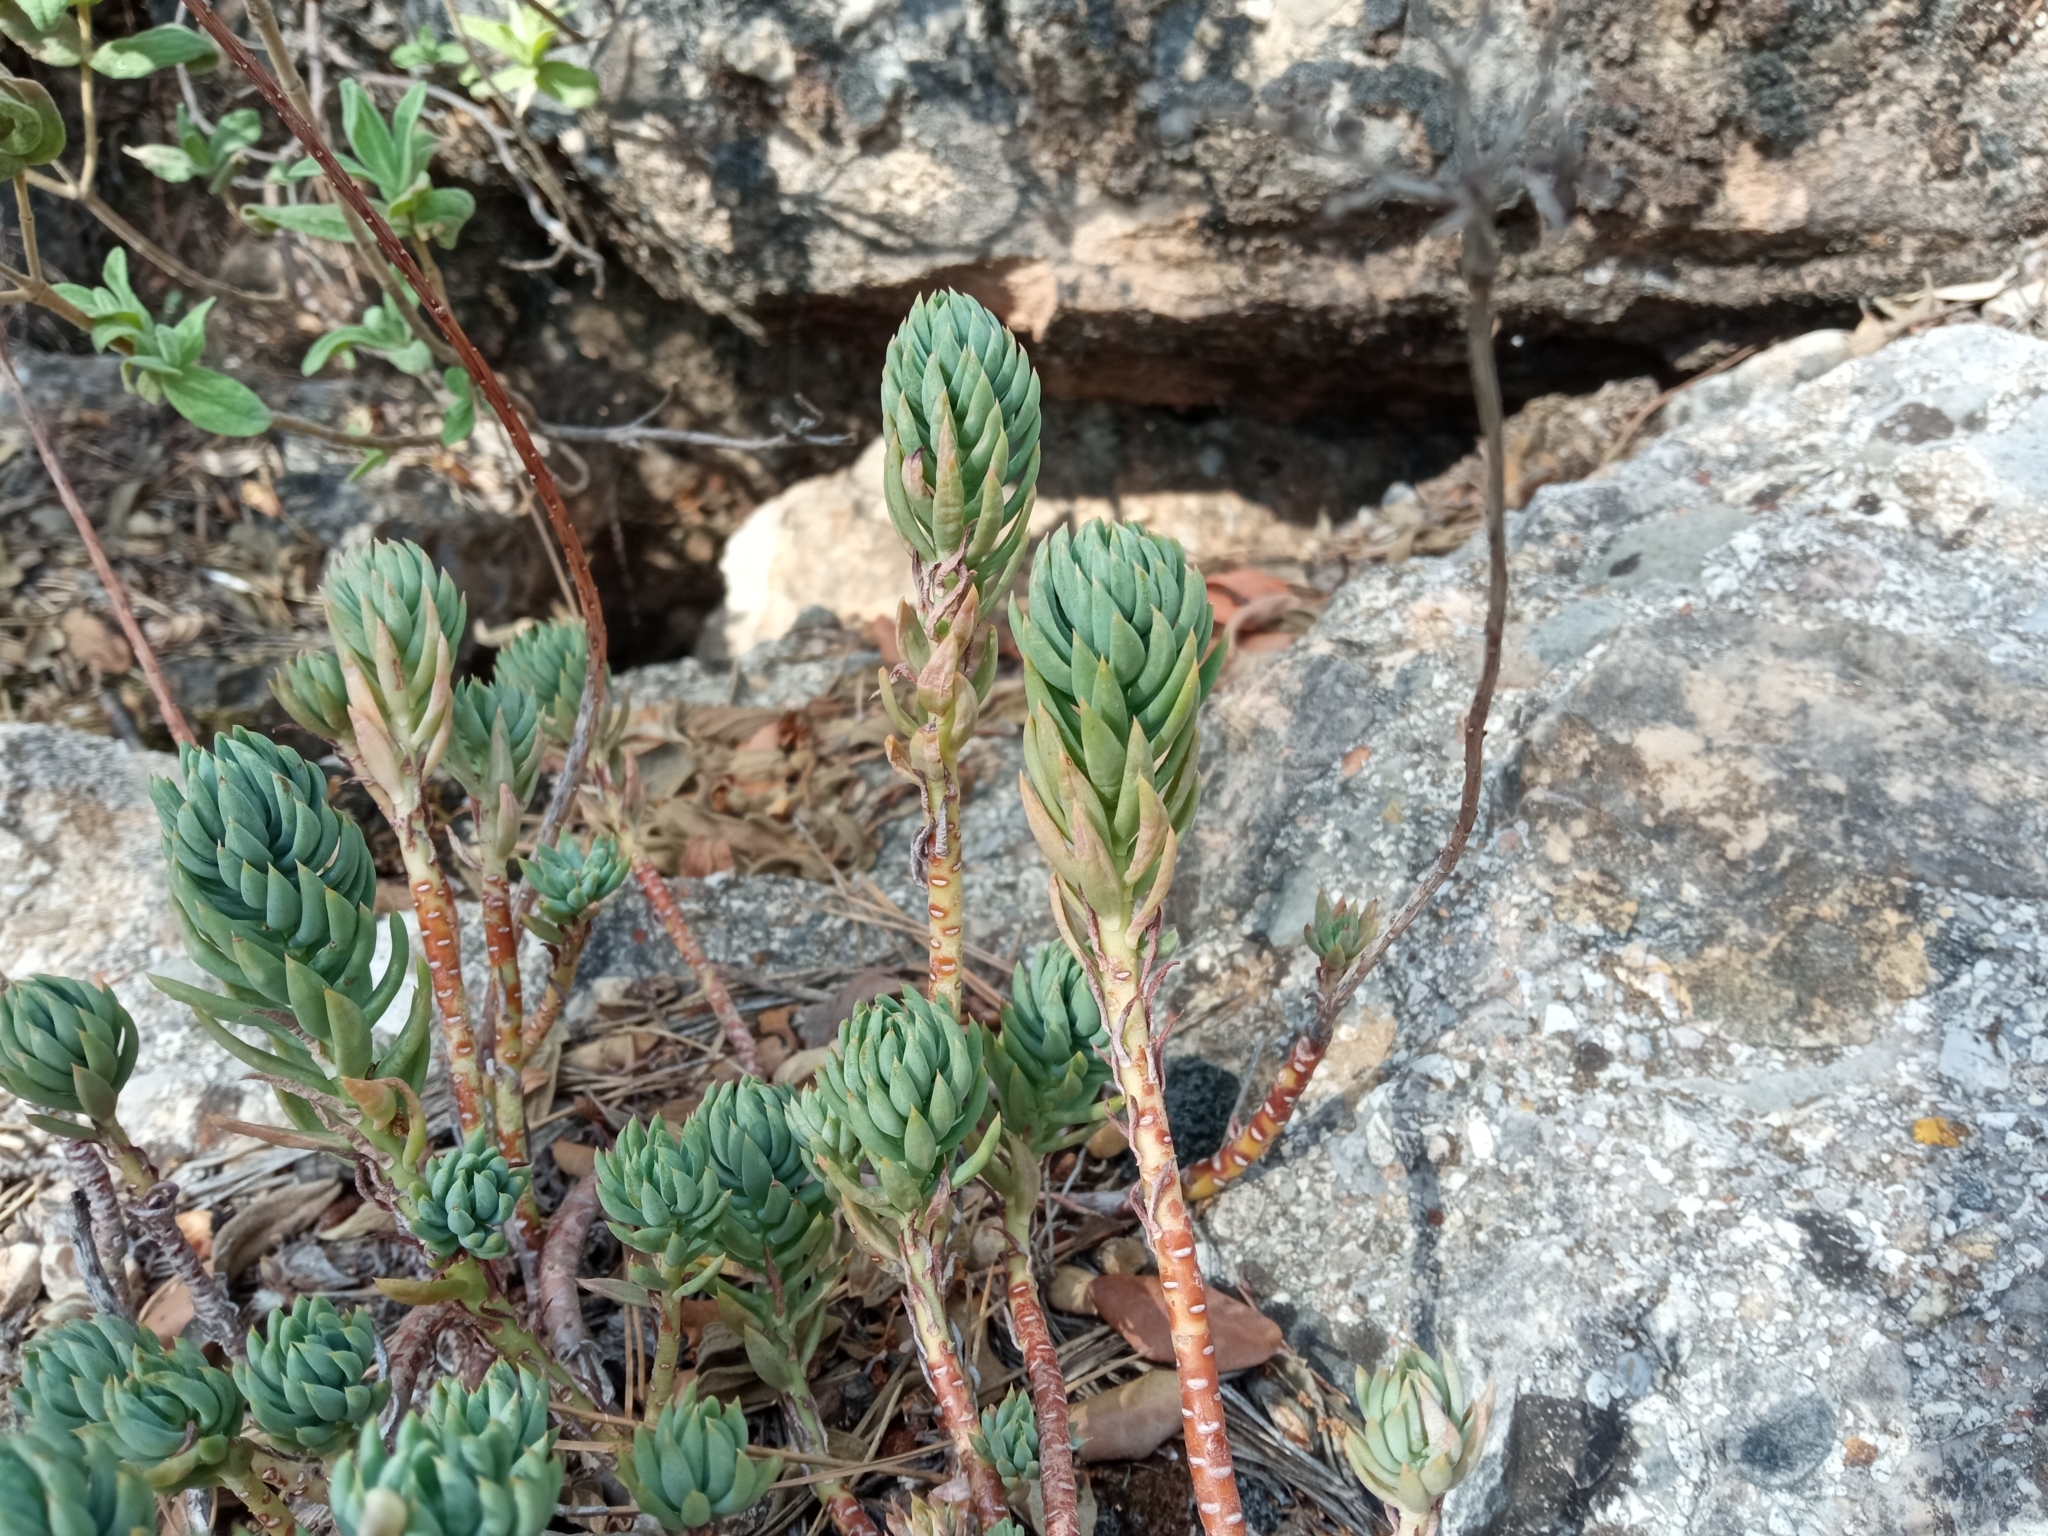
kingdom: Plantae
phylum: Tracheophyta
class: Magnoliopsida
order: Saxifragales
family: Crassulaceae
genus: Petrosedum
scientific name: Petrosedum sediforme
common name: Pale stonecrop
